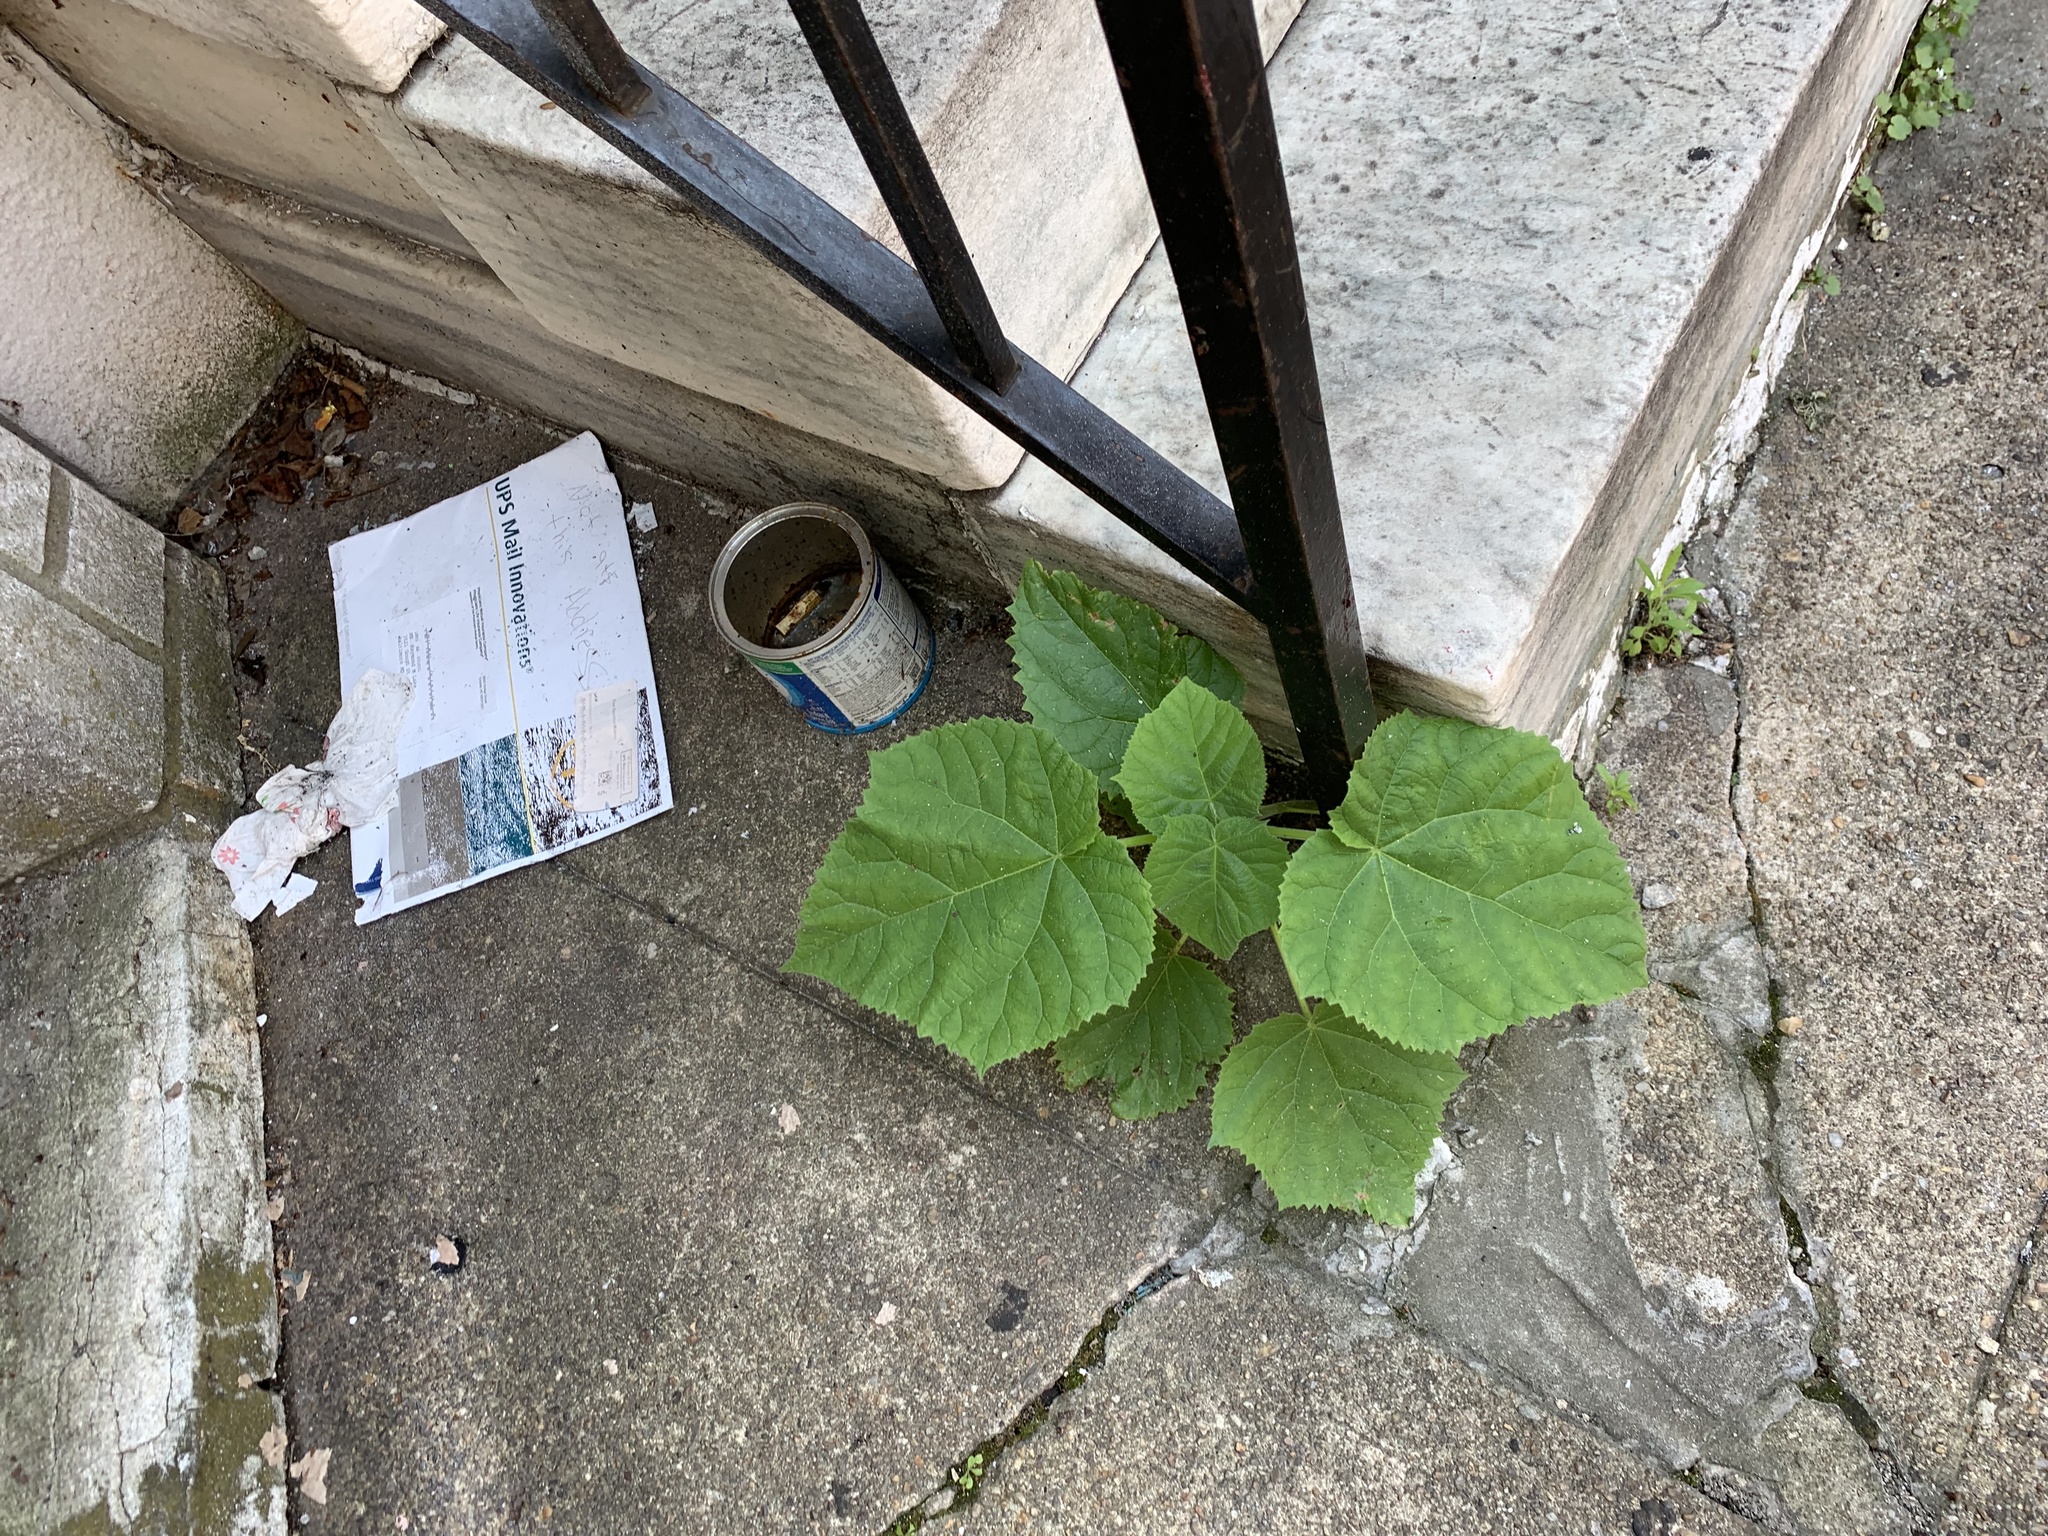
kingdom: Plantae
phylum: Tracheophyta
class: Magnoliopsida
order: Lamiales
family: Paulowniaceae
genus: Paulownia
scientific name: Paulownia tomentosa
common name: Foxglove-tree
